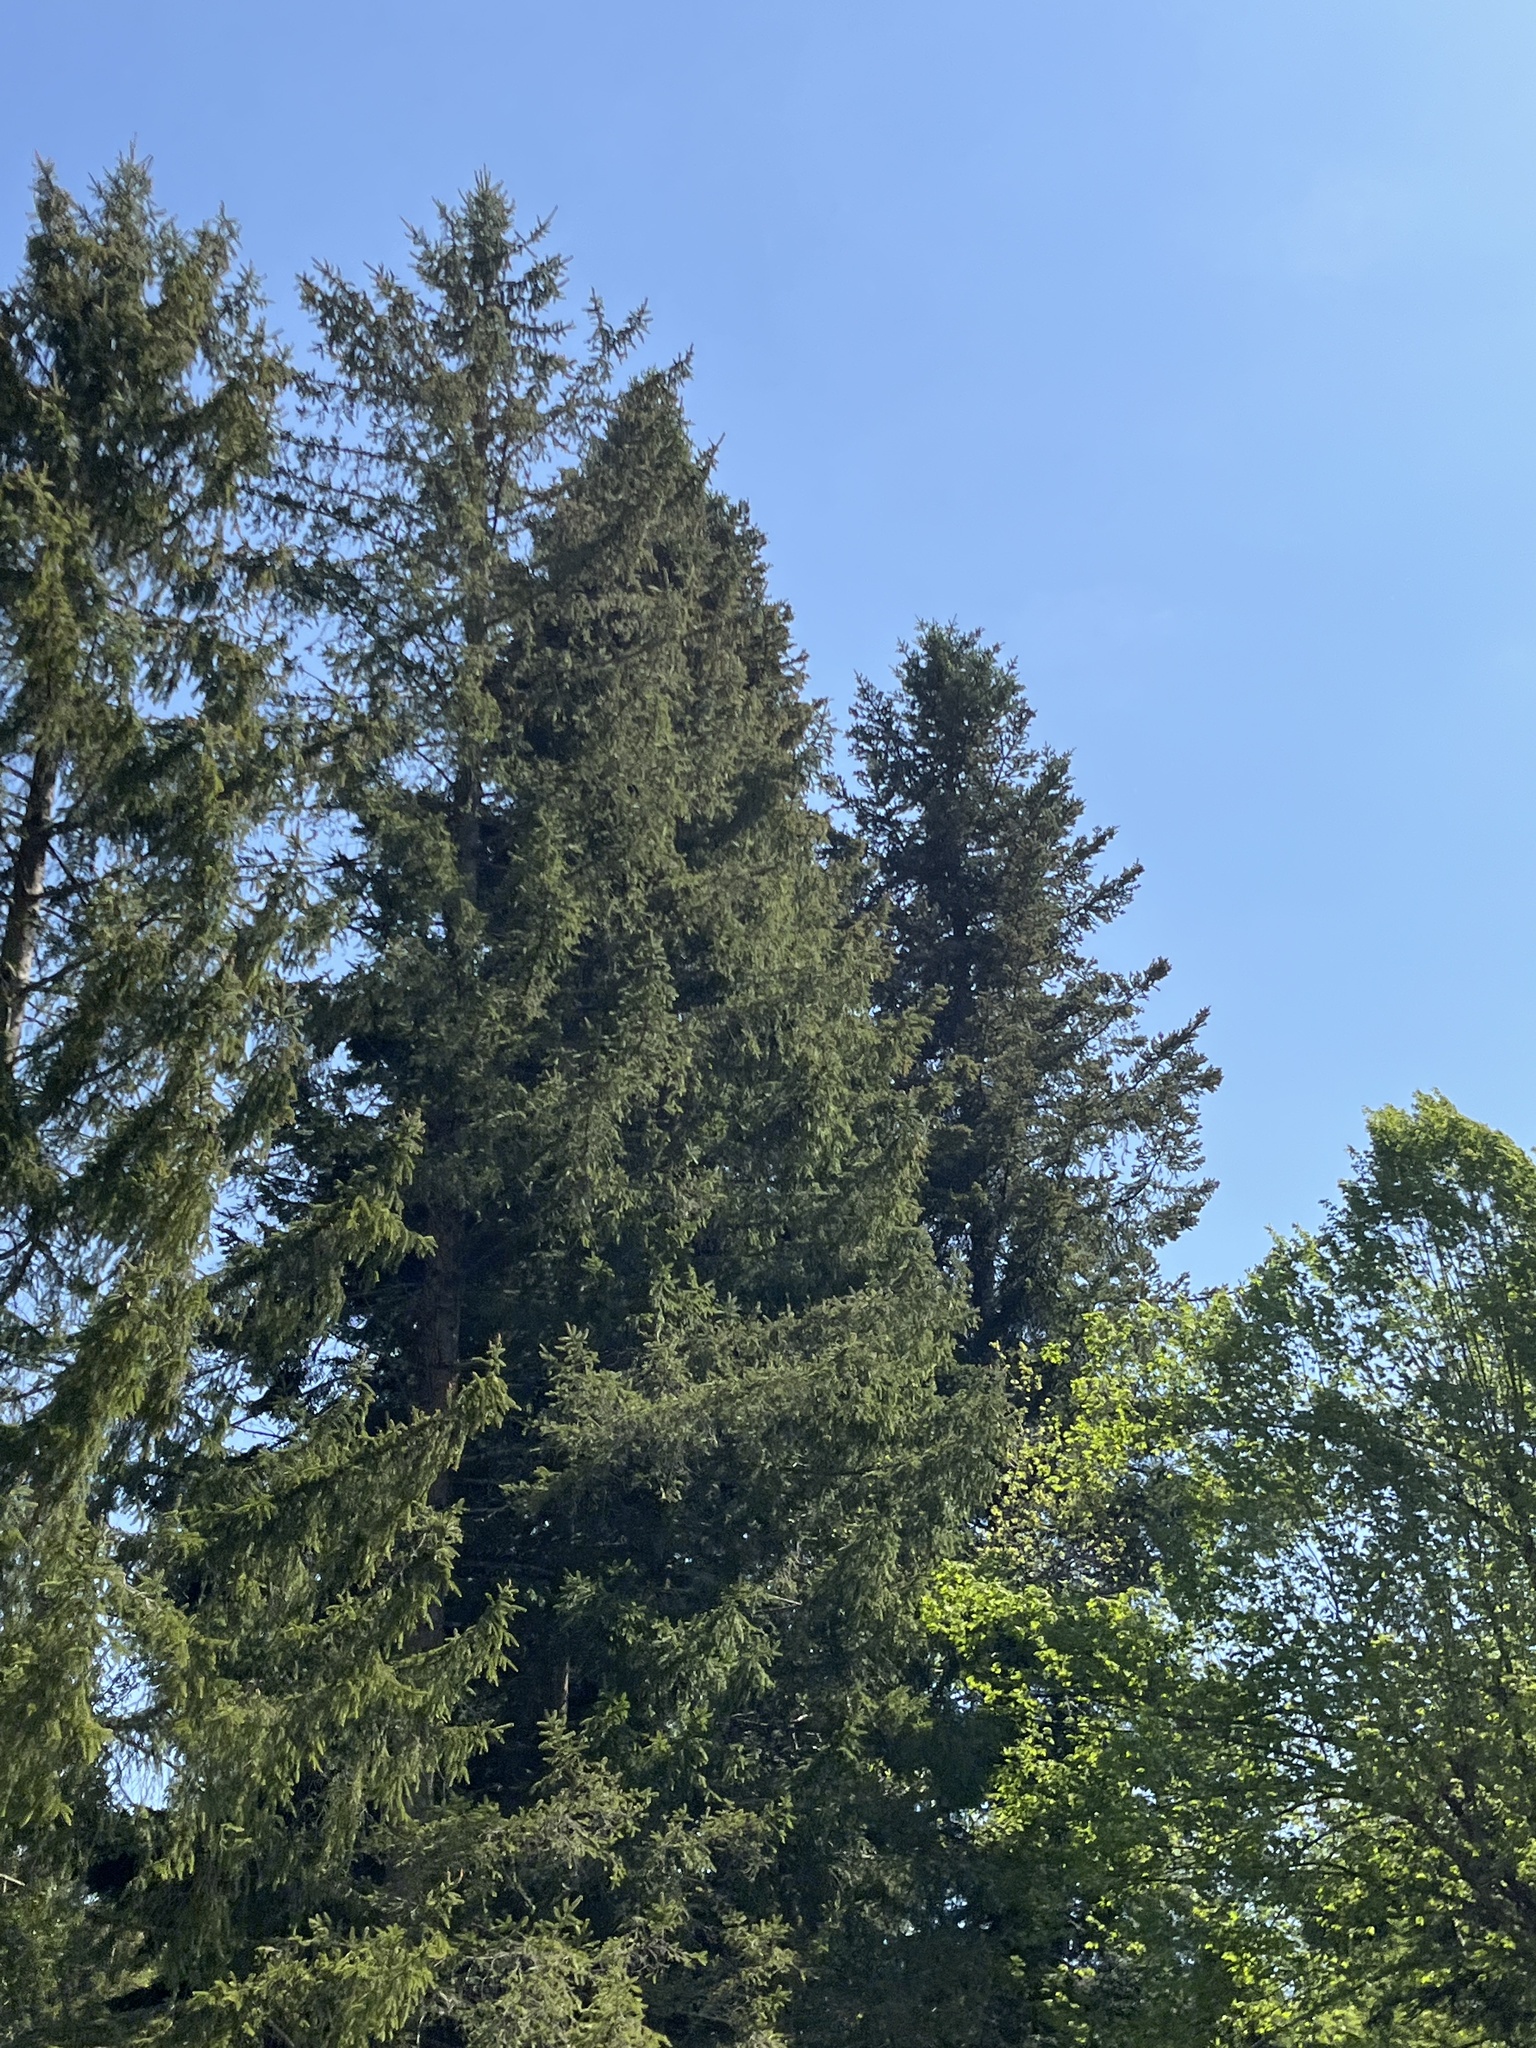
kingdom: Plantae
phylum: Tracheophyta
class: Pinopsida
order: Pinales
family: Pinaceae
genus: Picea
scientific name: Picea abies
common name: Norway spruce
